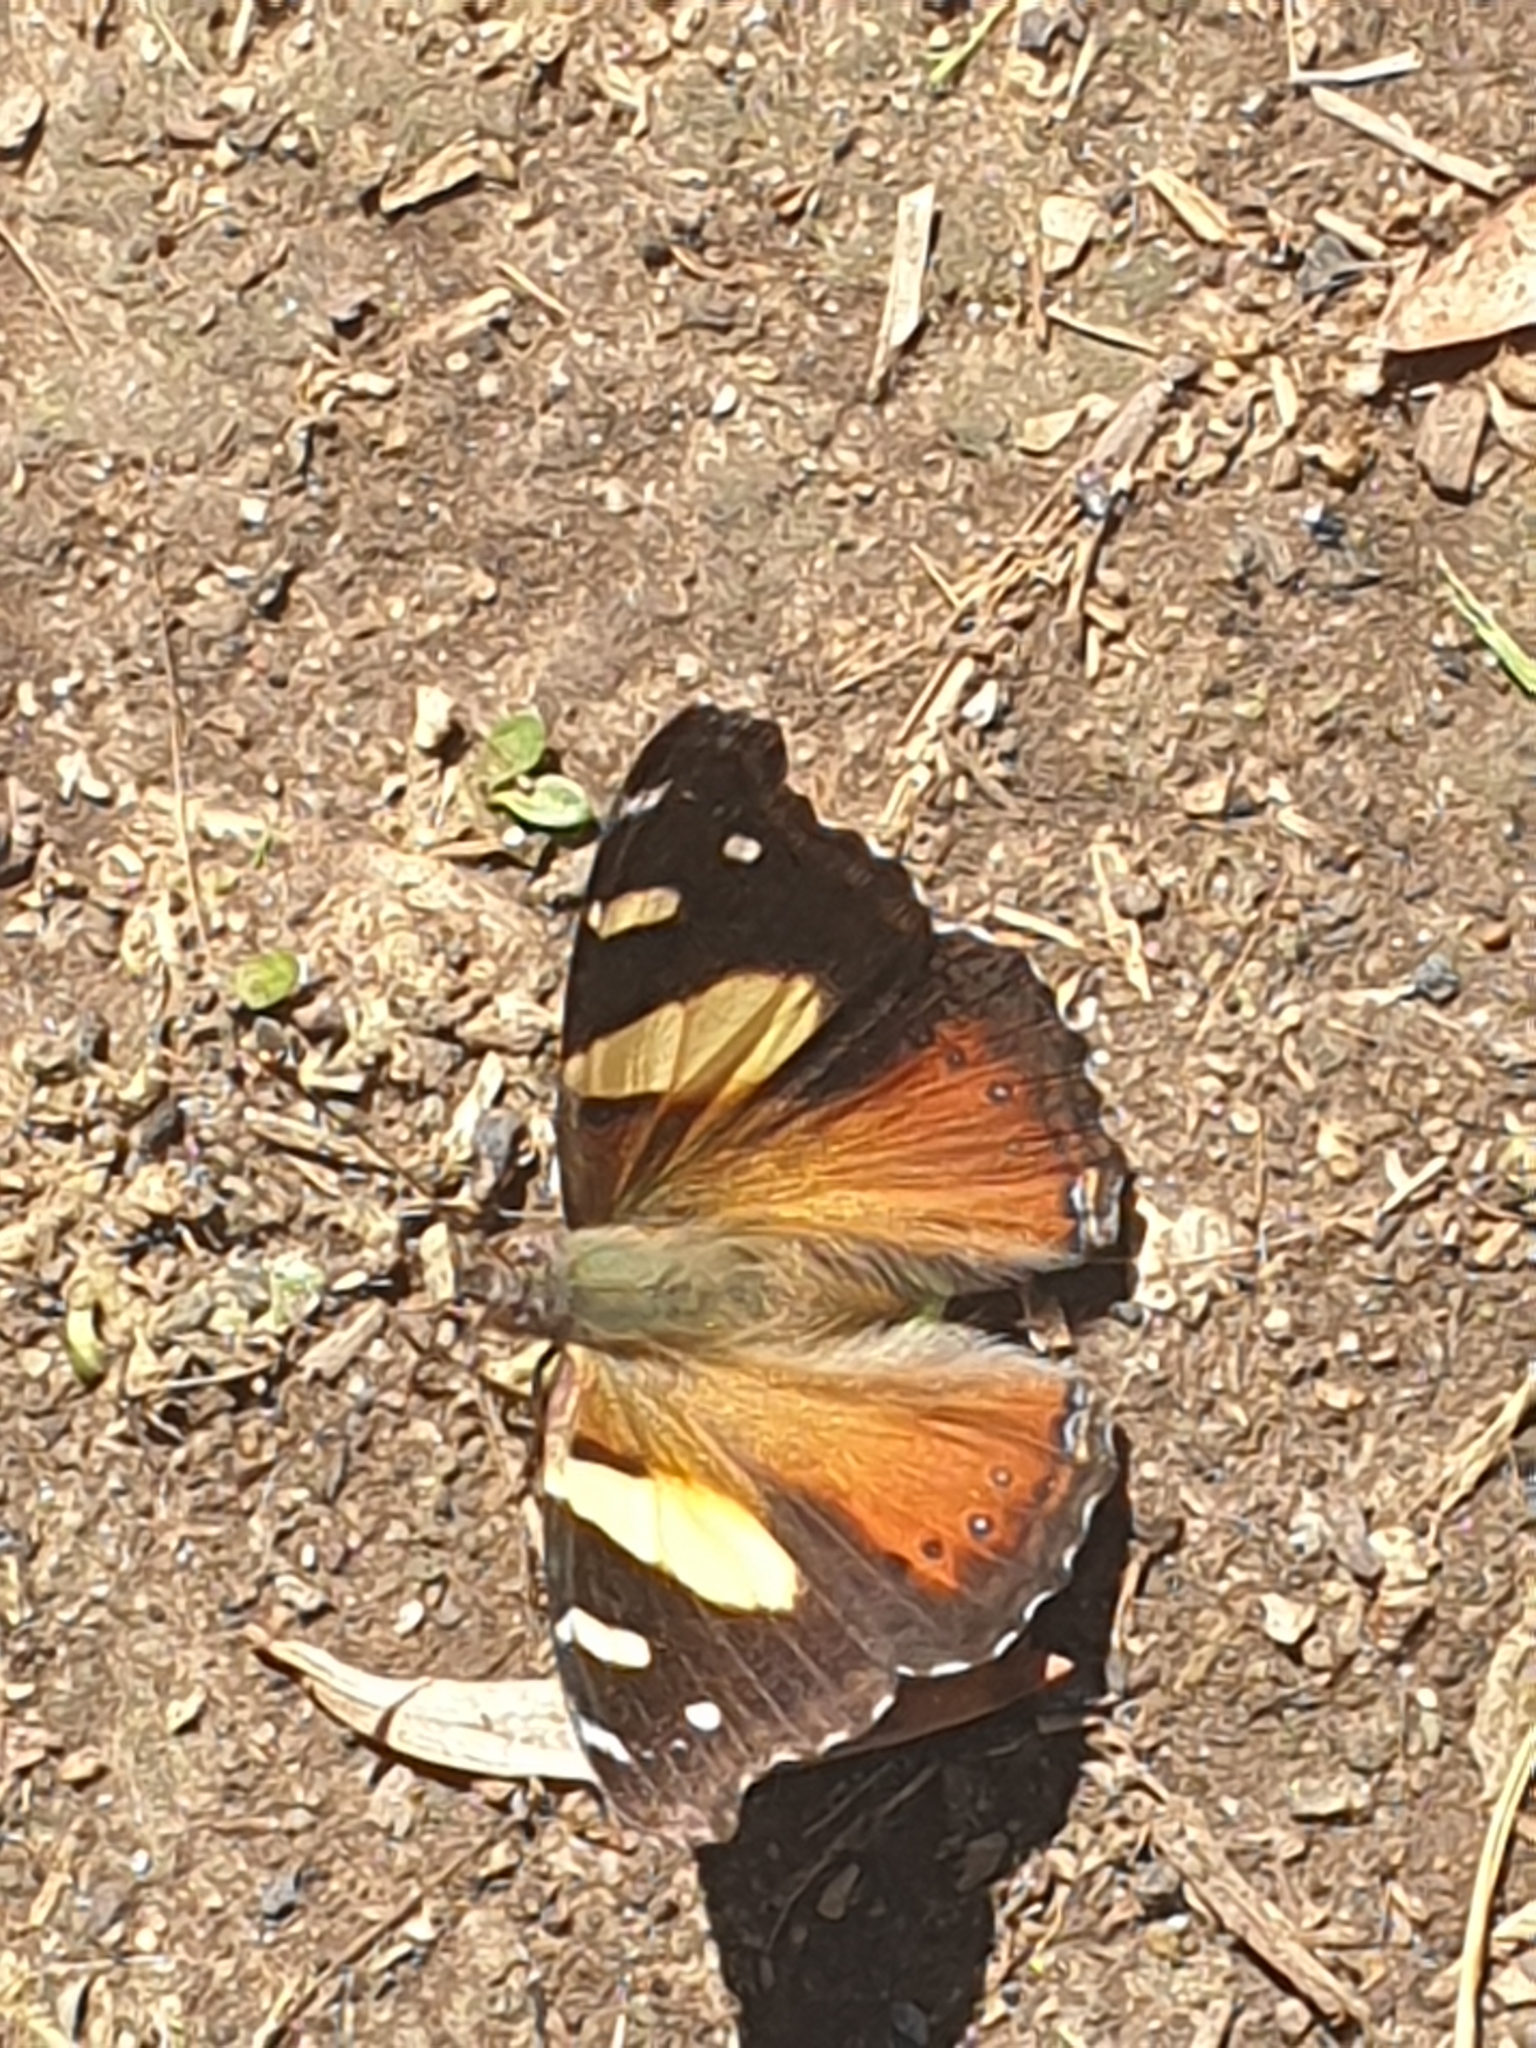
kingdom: Animalia
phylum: Arthropoda
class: Insecta
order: Lepidoptera
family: Nymphalidae
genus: Vanessa
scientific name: Vanessa itea
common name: Yellow admiral
